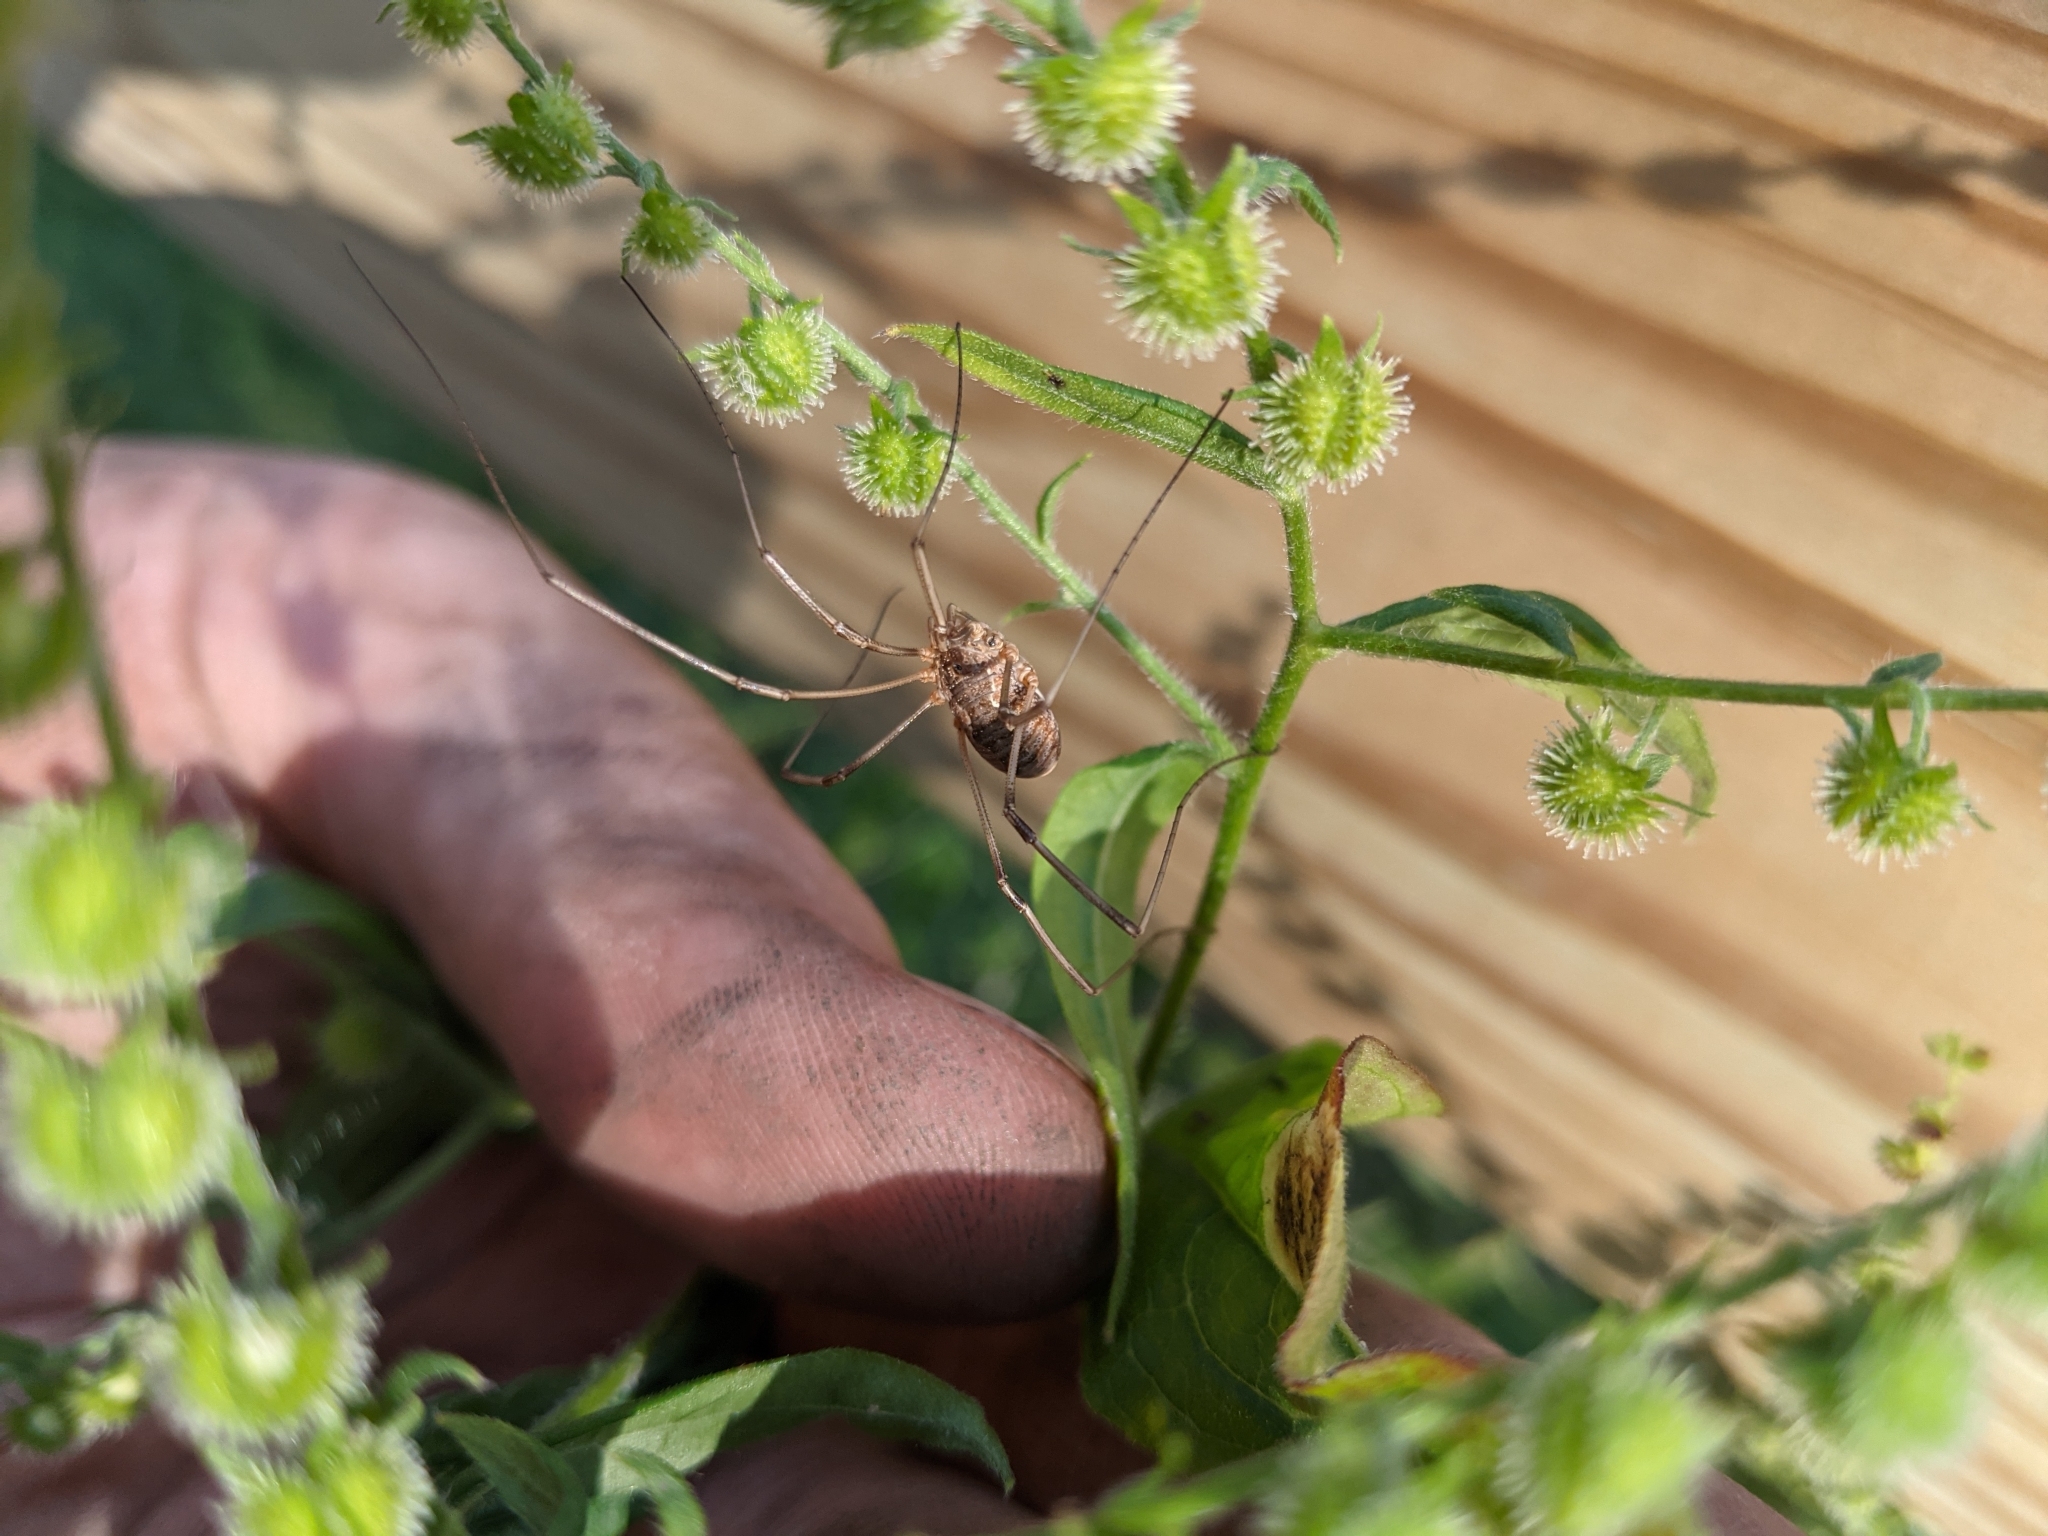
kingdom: Animalia
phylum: Arthropoda
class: Arachnida
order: Opiliones
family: Phalangiidae
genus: Phalangium
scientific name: Phalangium opilio
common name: Daddy longleg
